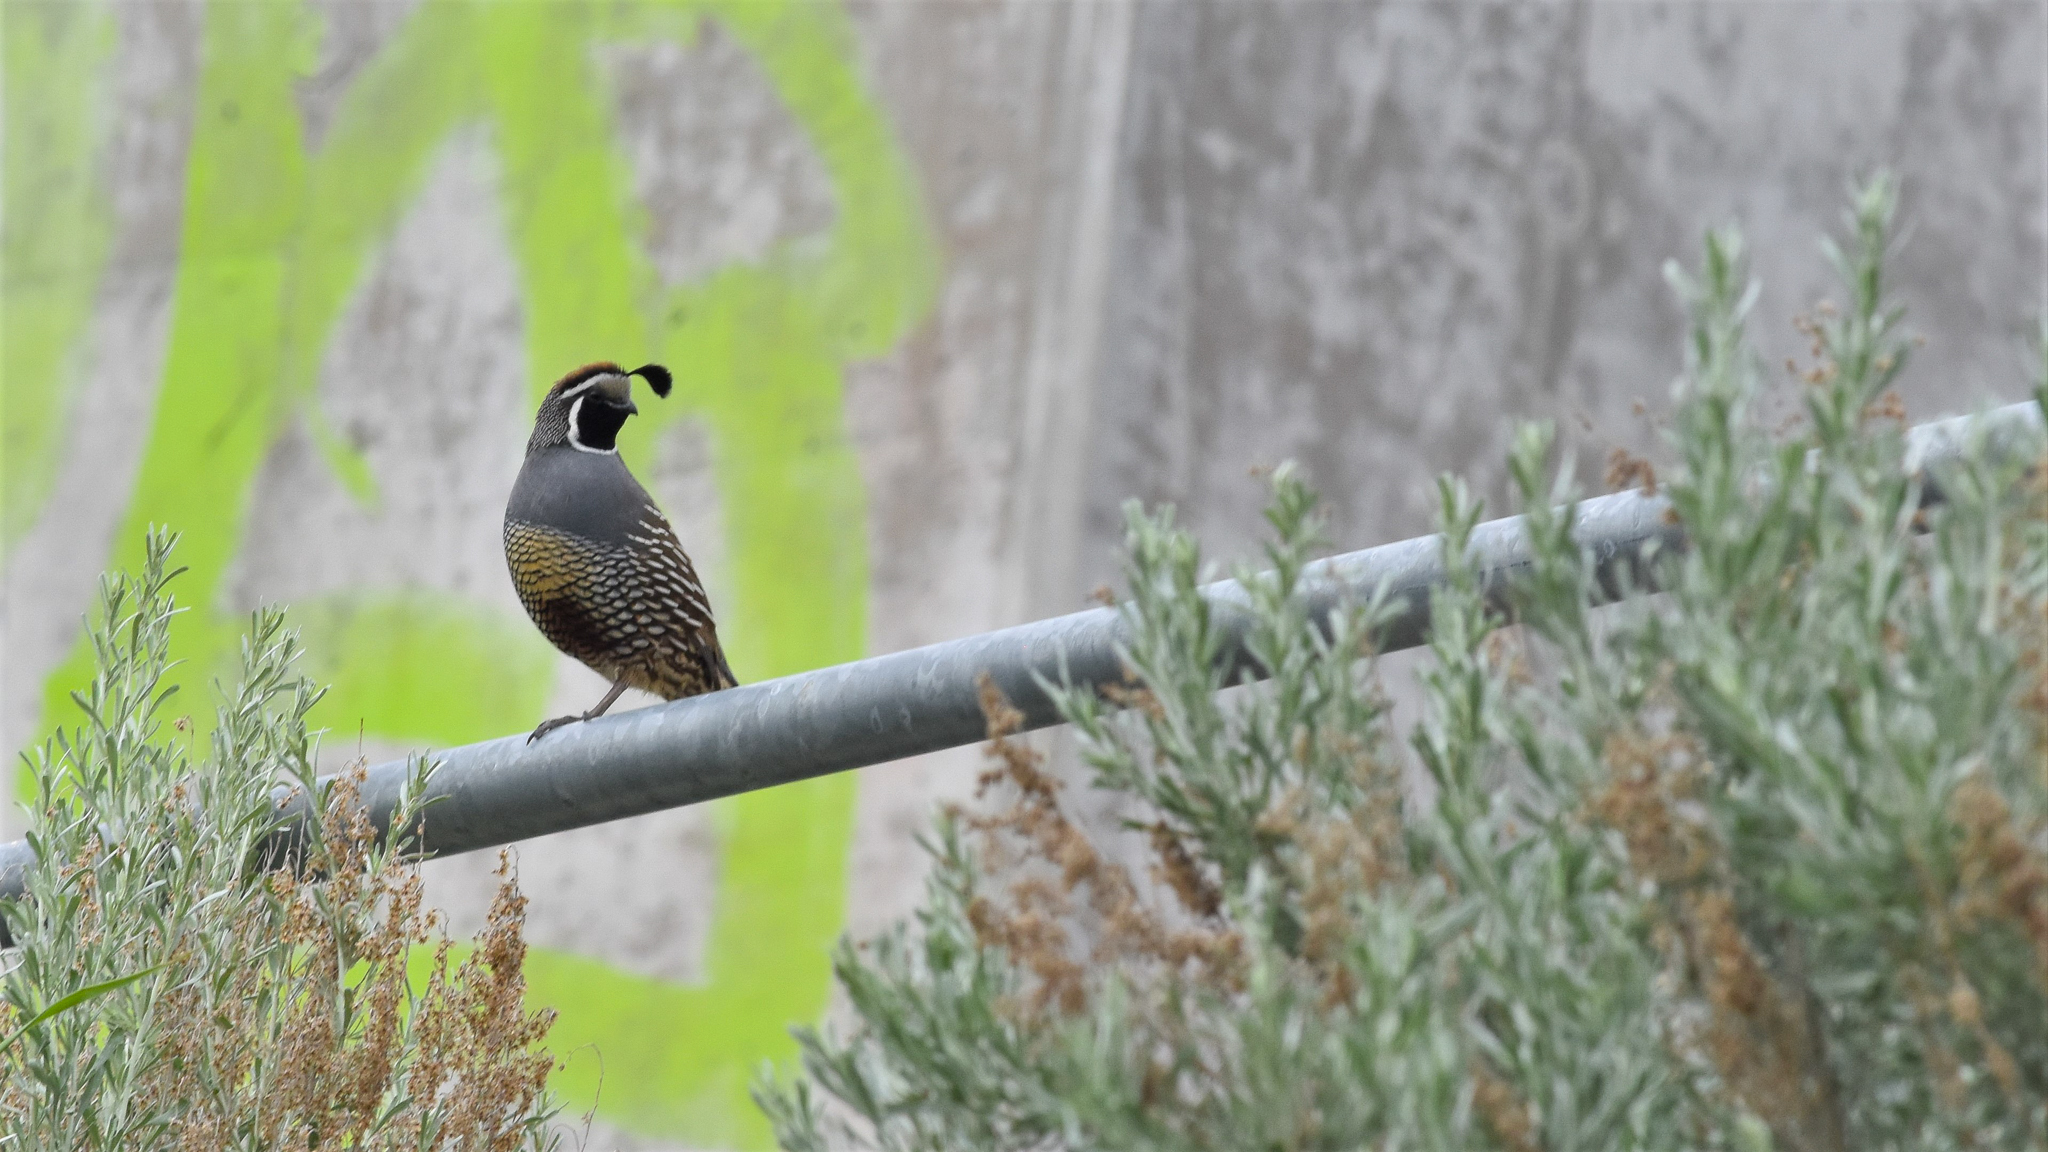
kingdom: Animalia
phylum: Chordata
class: Aves
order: Galliformes
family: Odontophoridae
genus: Callipepla
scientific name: Callipepla californica
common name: California quail
